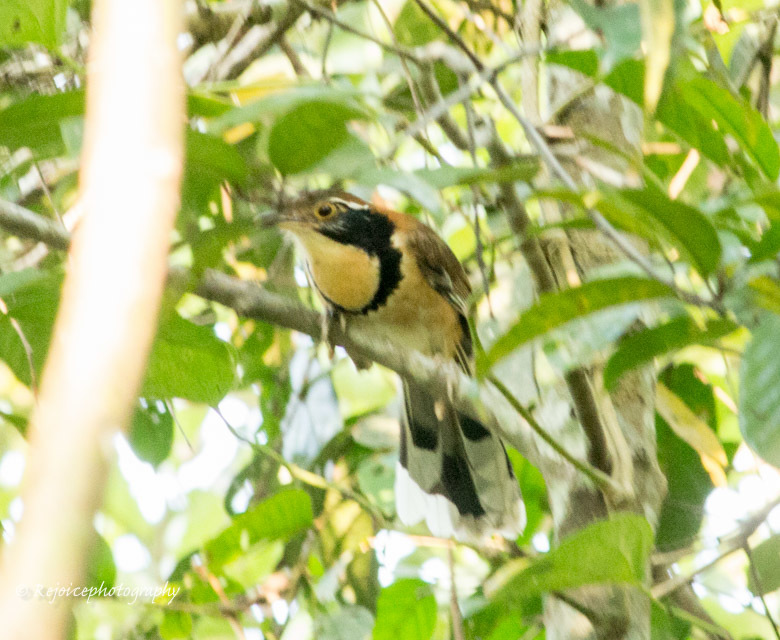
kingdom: Animalia
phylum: Chordata
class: Aves
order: Passeriformes
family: Leiothrichidae
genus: Garrulax
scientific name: Garrulax pectoralis
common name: Greater necklaced laughingthrush
